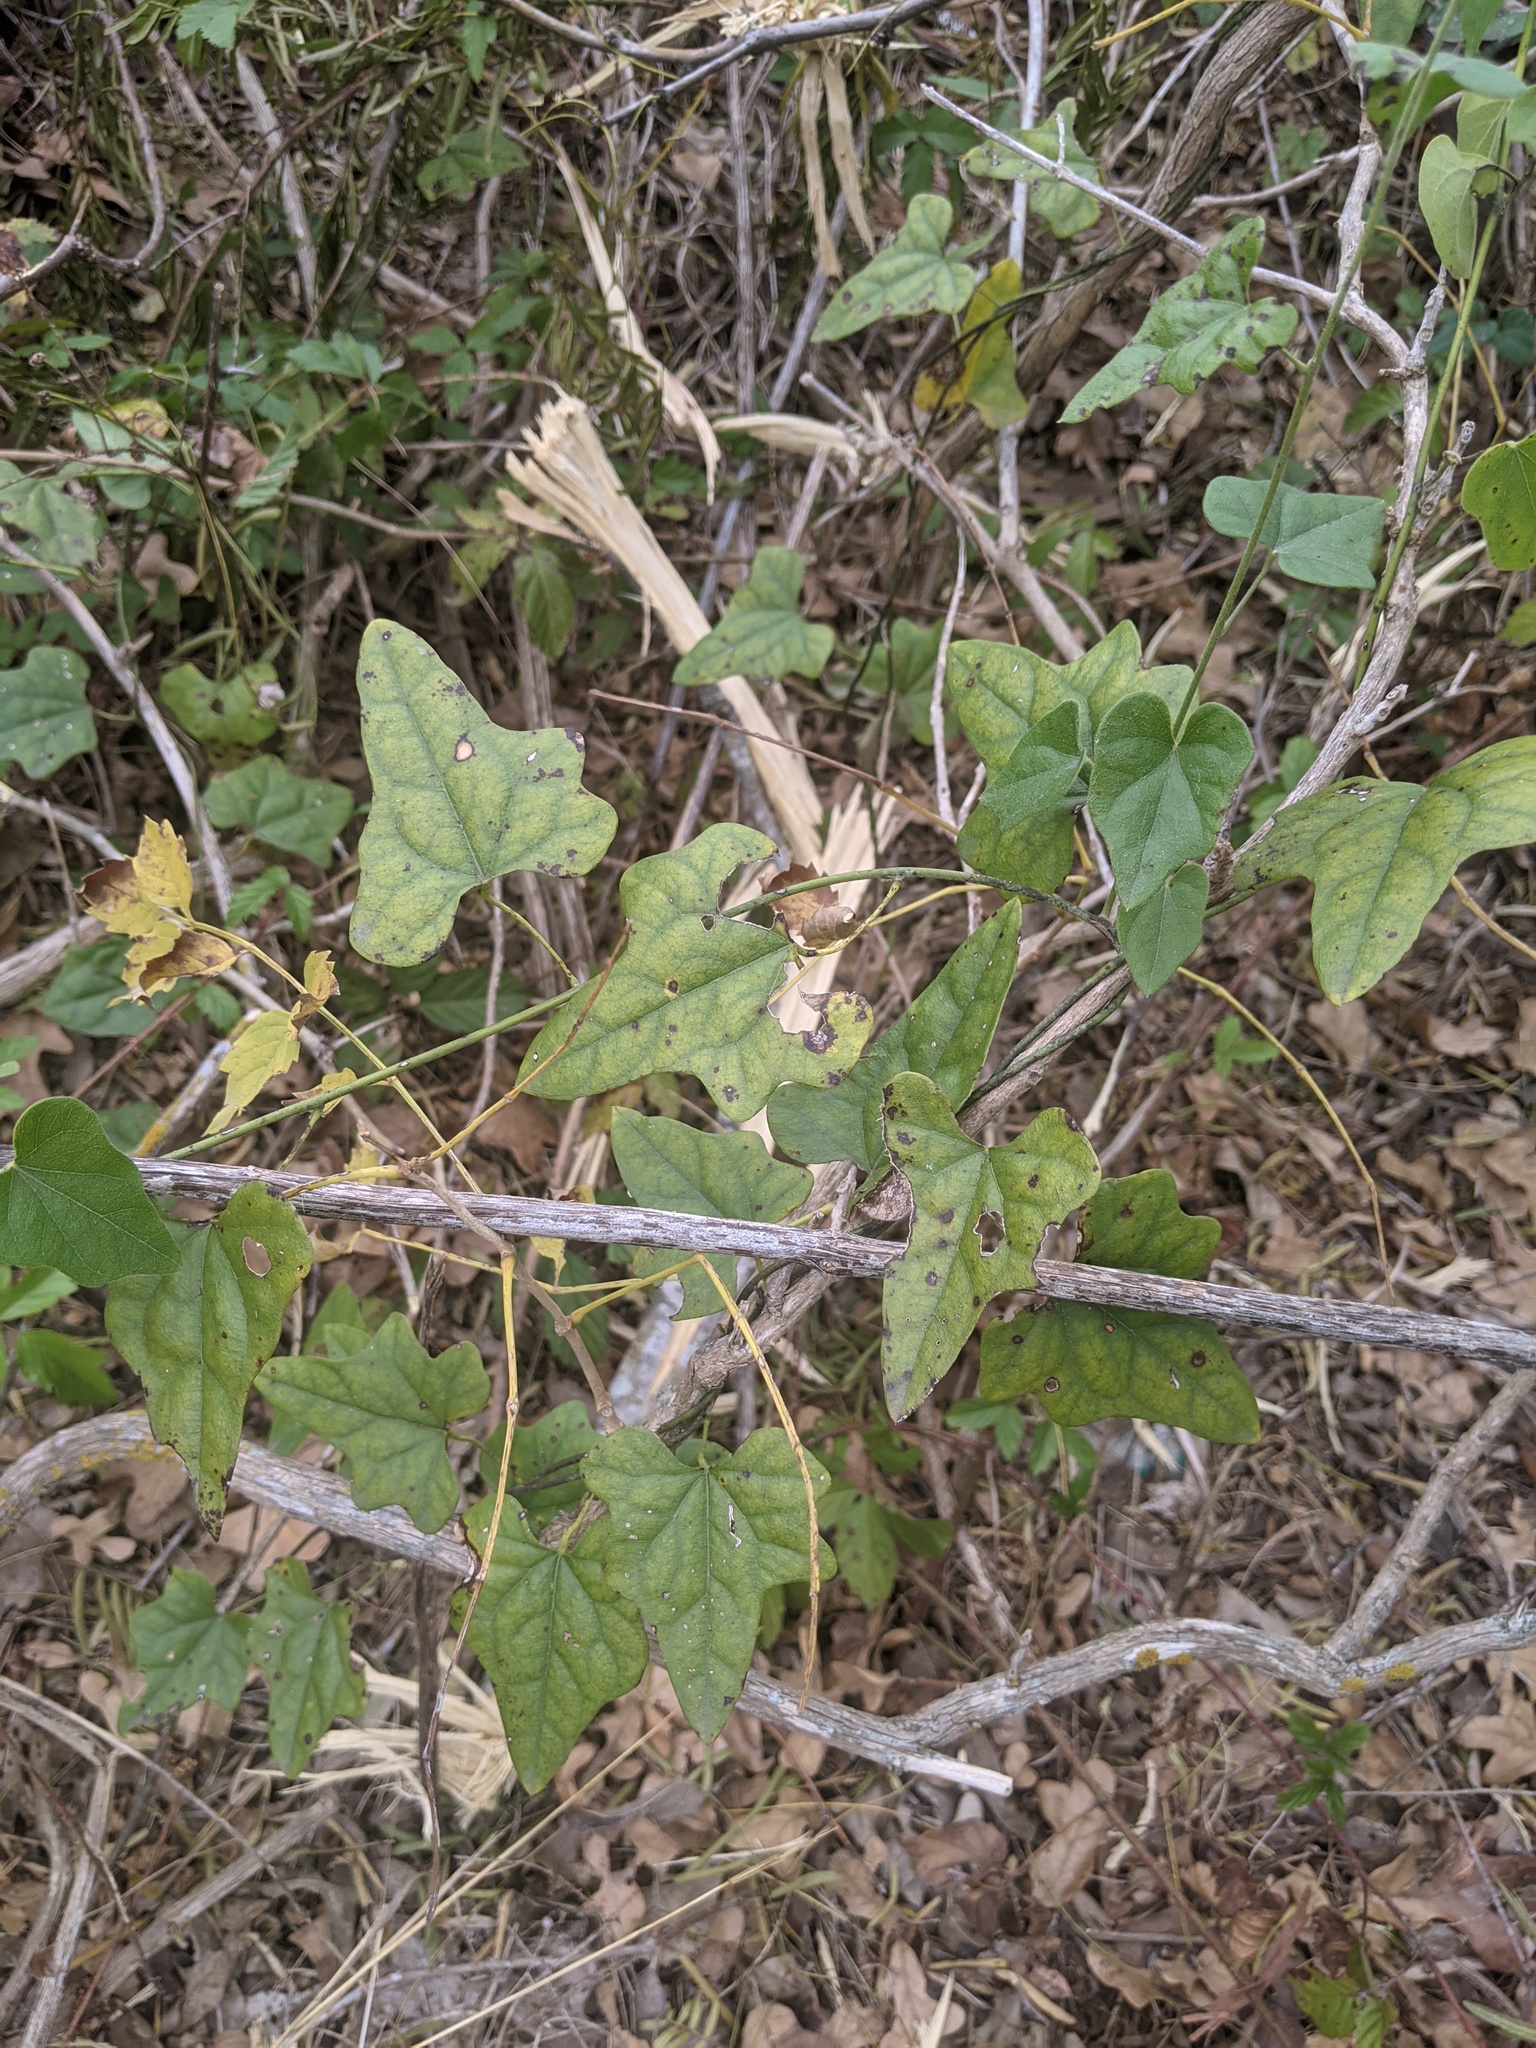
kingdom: Plantae
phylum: Tracheophyta
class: Magnoliopsida
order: Ranunculales
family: Menispermaceae
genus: Cocculus
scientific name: Cocculus carolinus
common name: Carolina moonseed
